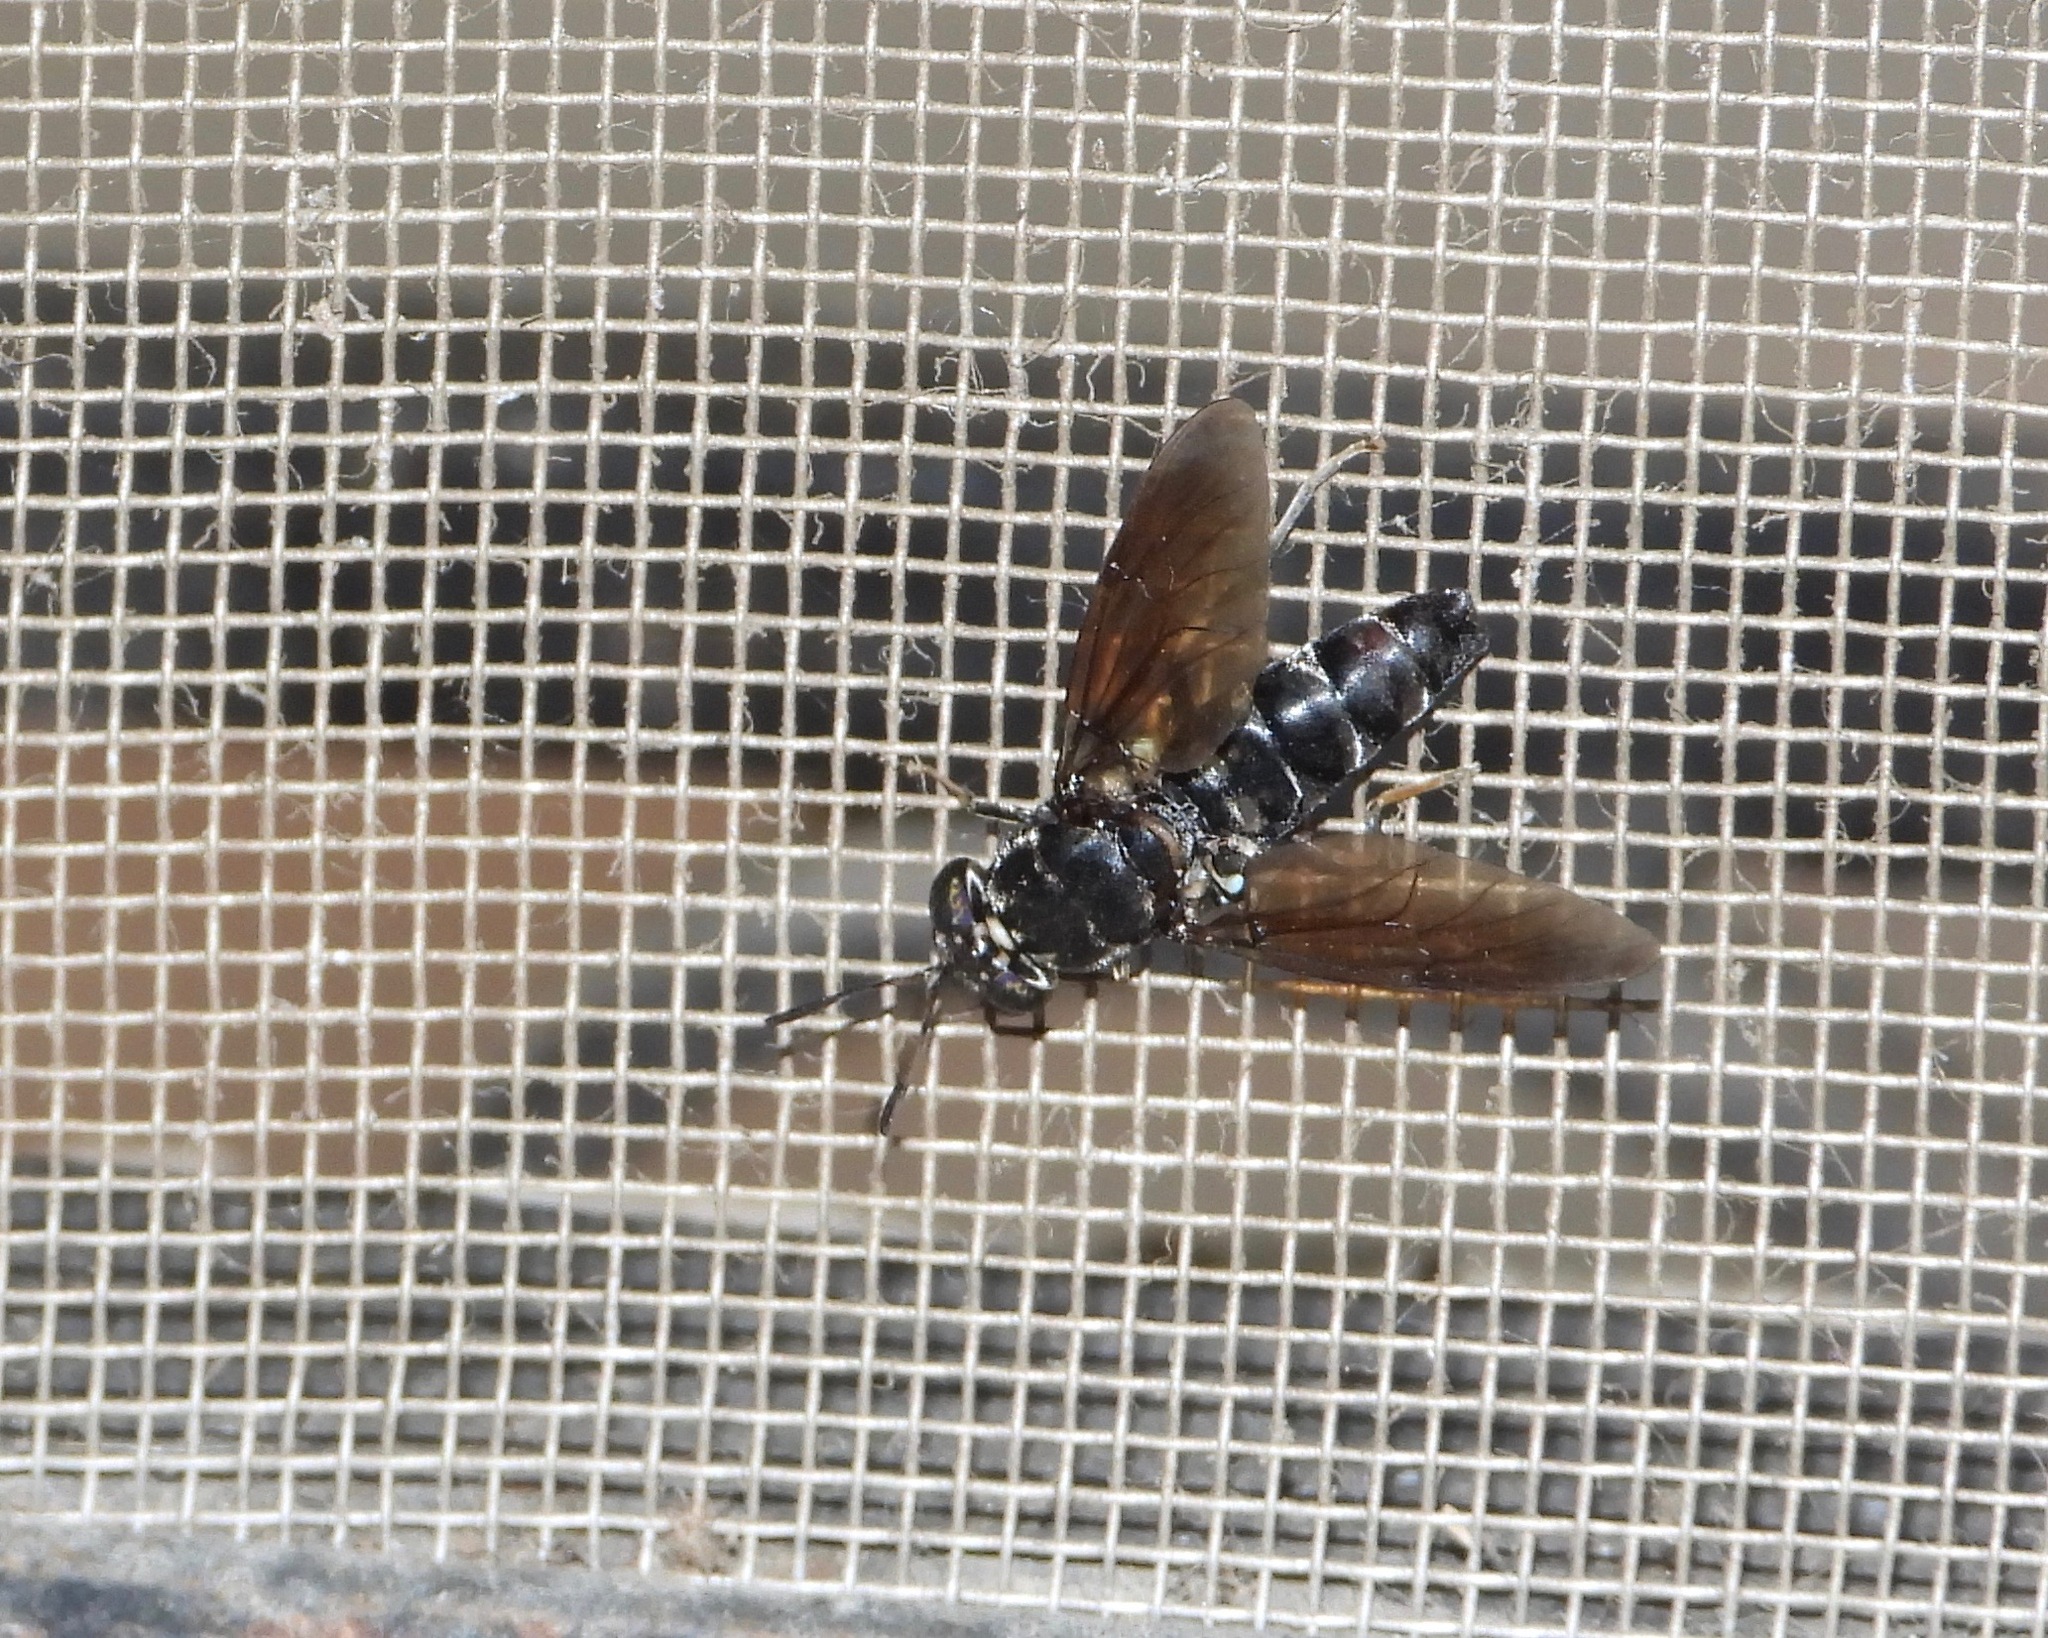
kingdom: Animalia
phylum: Arthropoda
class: Insecta
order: Diptera
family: Stratiomyidae
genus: Hermetia
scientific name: Hermetia illucens
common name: Black soldier fly
